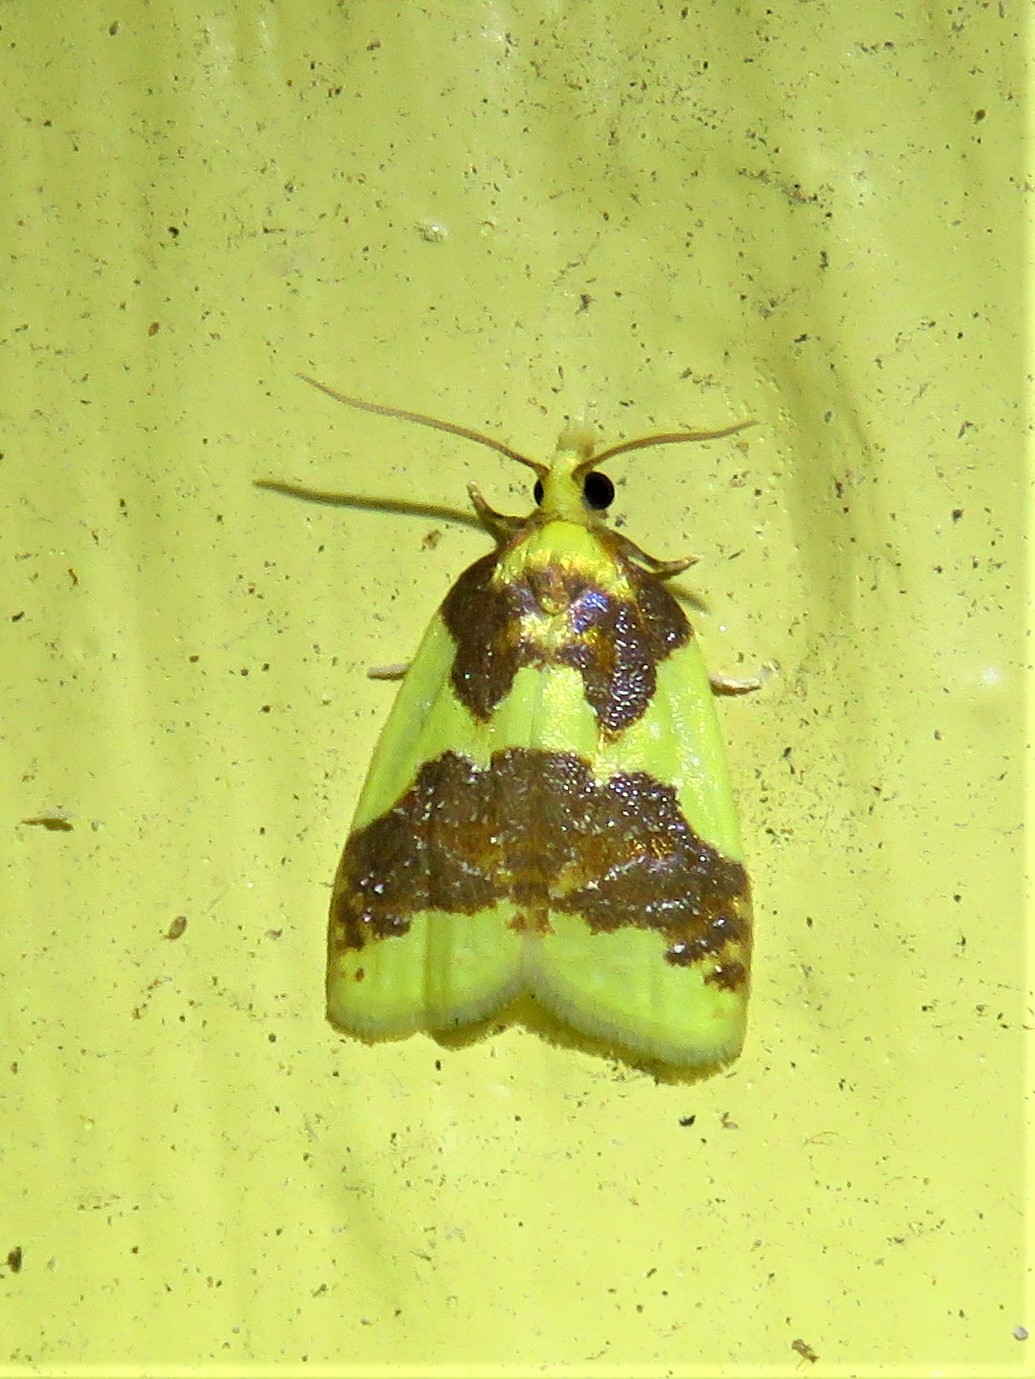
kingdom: Animalia
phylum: Arthropoda
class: Insecta
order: Lepidoptera
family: Tortricidae
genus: Sparganothis
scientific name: Sparganothis pulcherrimana
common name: Beautiful sparganothis
